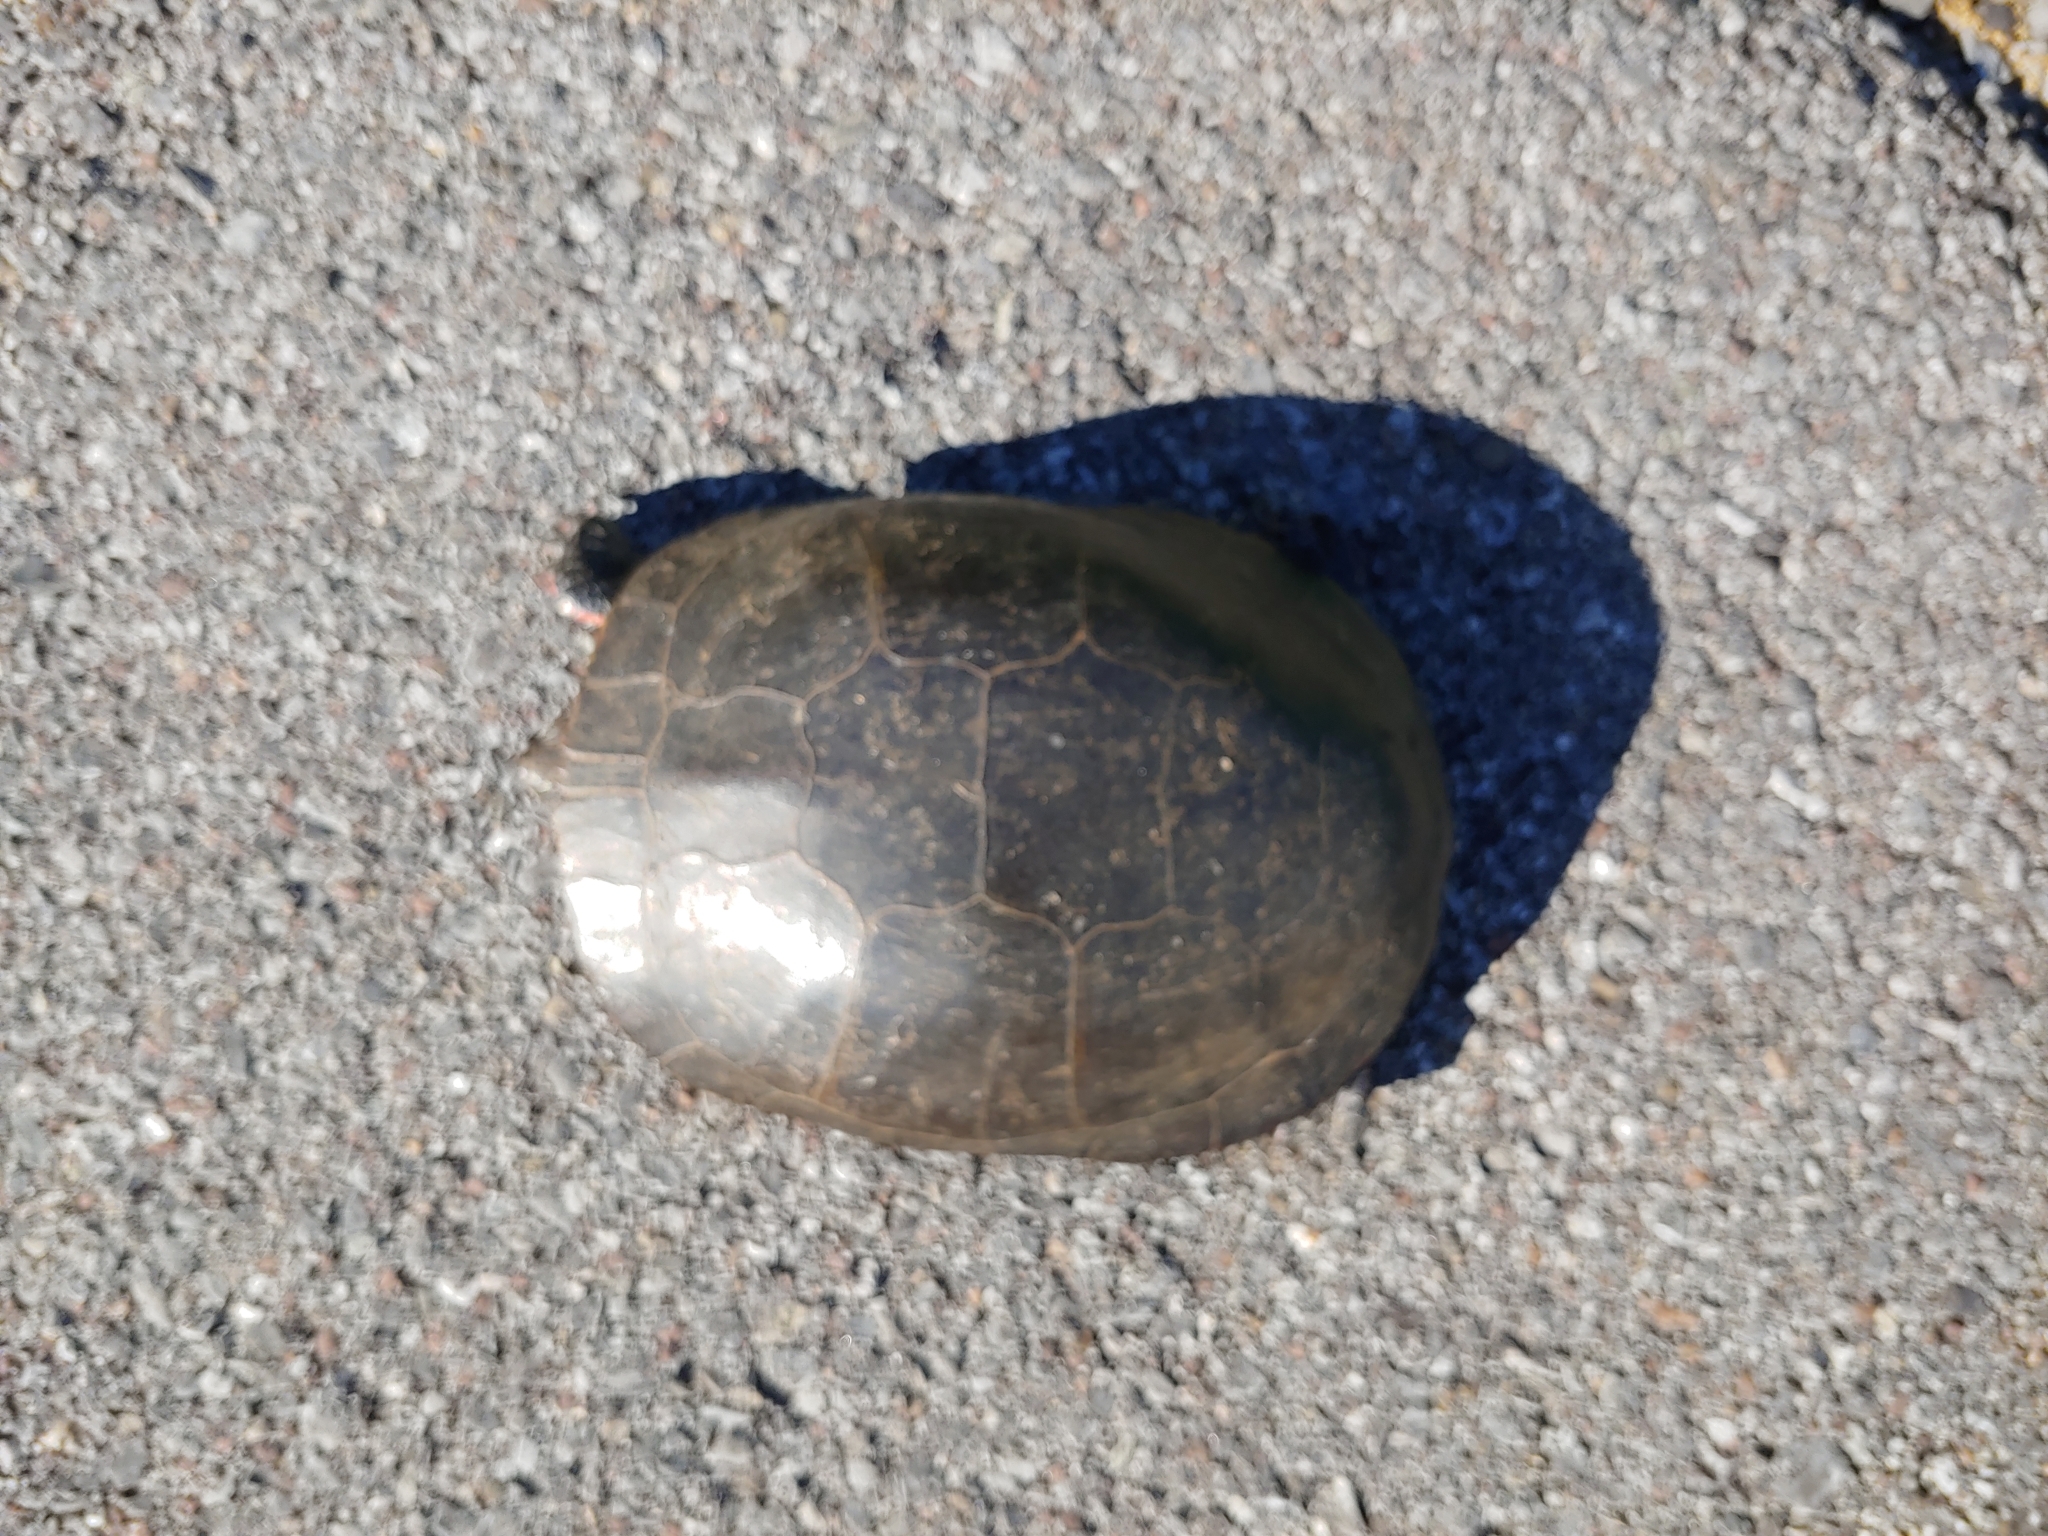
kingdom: Animalia
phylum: Chordata
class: Testudines
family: Emydidae
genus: Chrysemys
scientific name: Chrysemys picta
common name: Painted turtle
